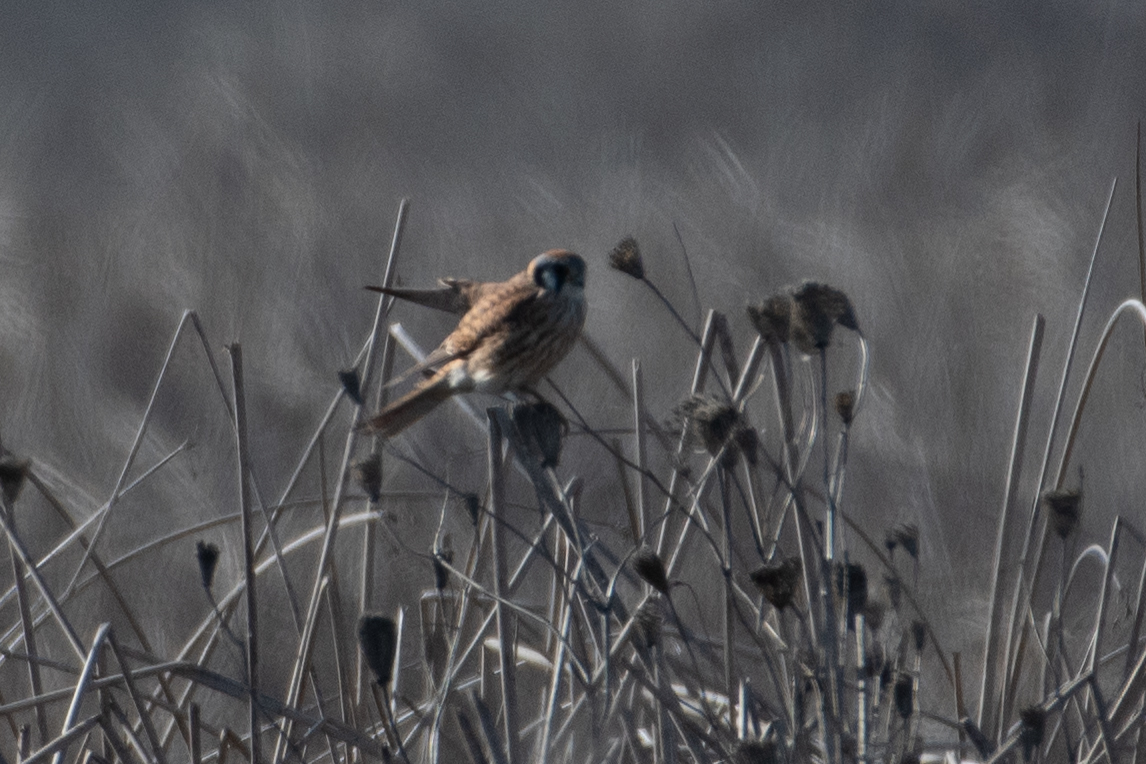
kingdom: Animalia
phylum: Chordata
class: Aves
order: Falconiformes
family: Falconidae
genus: Falco
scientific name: Falco sparverius
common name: American kestrel
